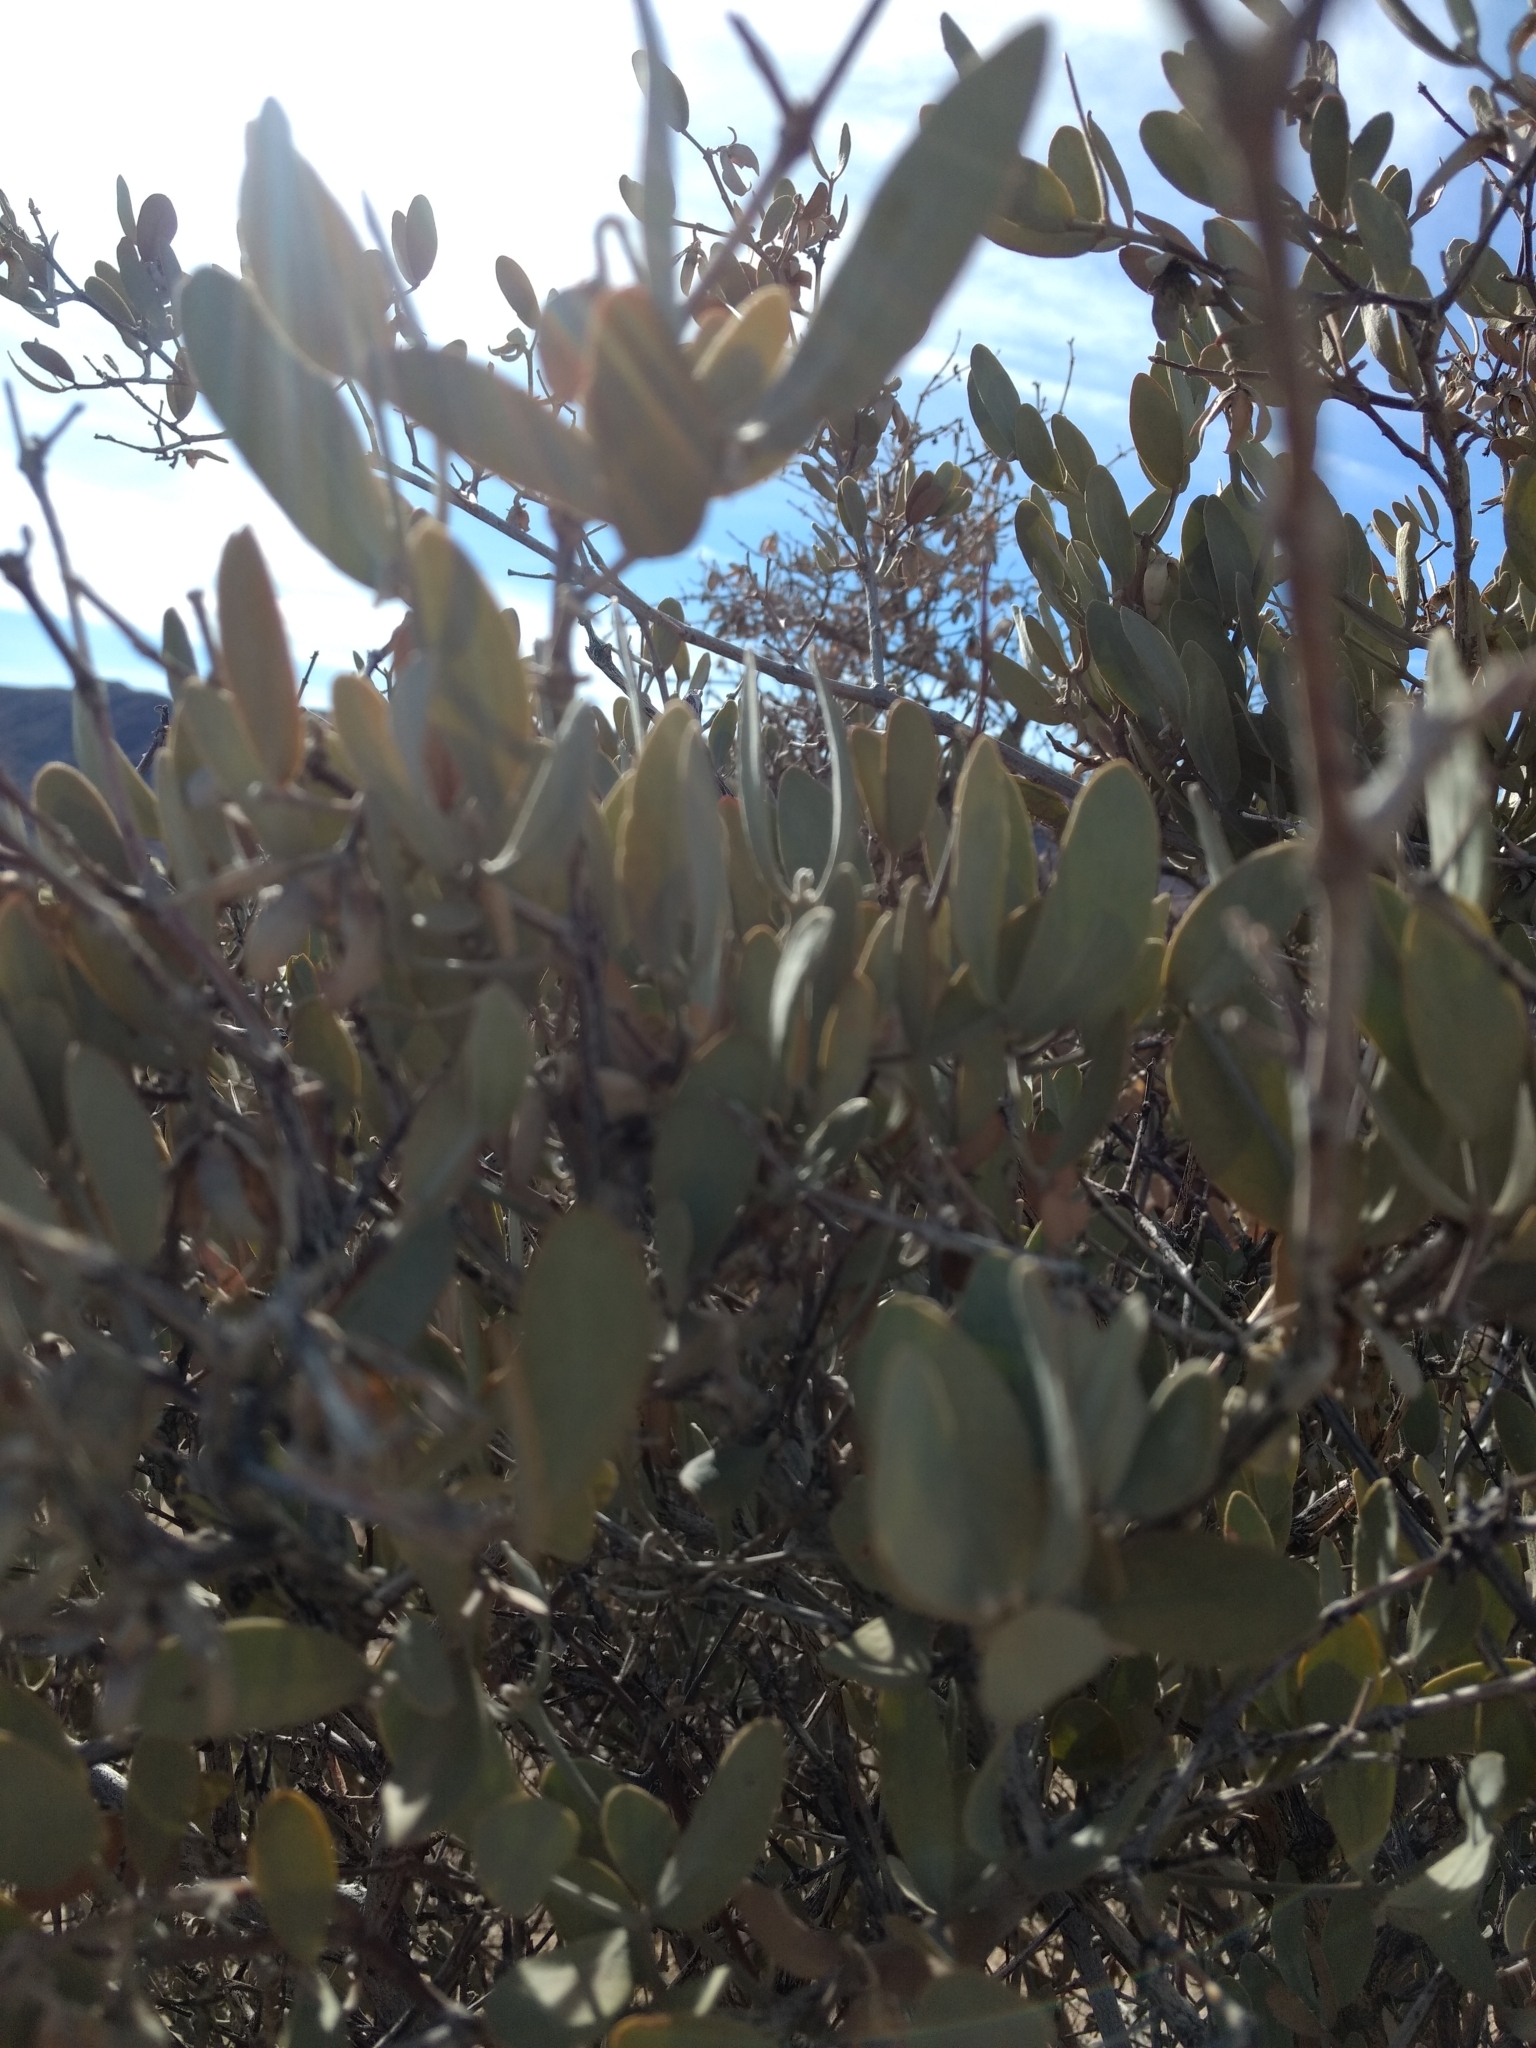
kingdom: Plantae
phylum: Tracheophyta
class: Magnoliopsida
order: Caryophyllales
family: Simmondsiaceae
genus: Simmondsia
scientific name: Simmondsia chinensis
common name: Jojoba
